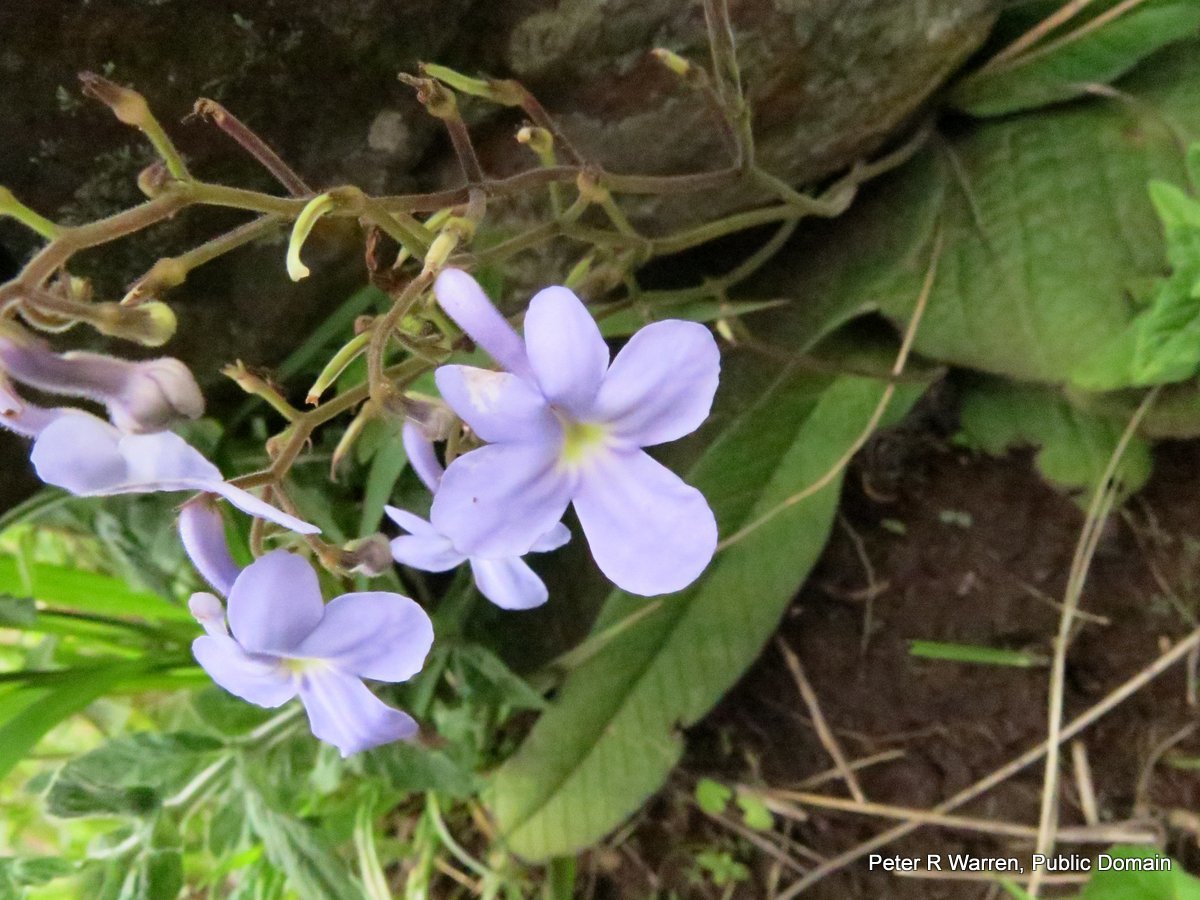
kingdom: Plantae
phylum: Tracheophyta
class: Magnoliopsida
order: Lamiales
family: Gesneriaceae
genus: Streptocarpus
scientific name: Streptocarpus polyanthus
